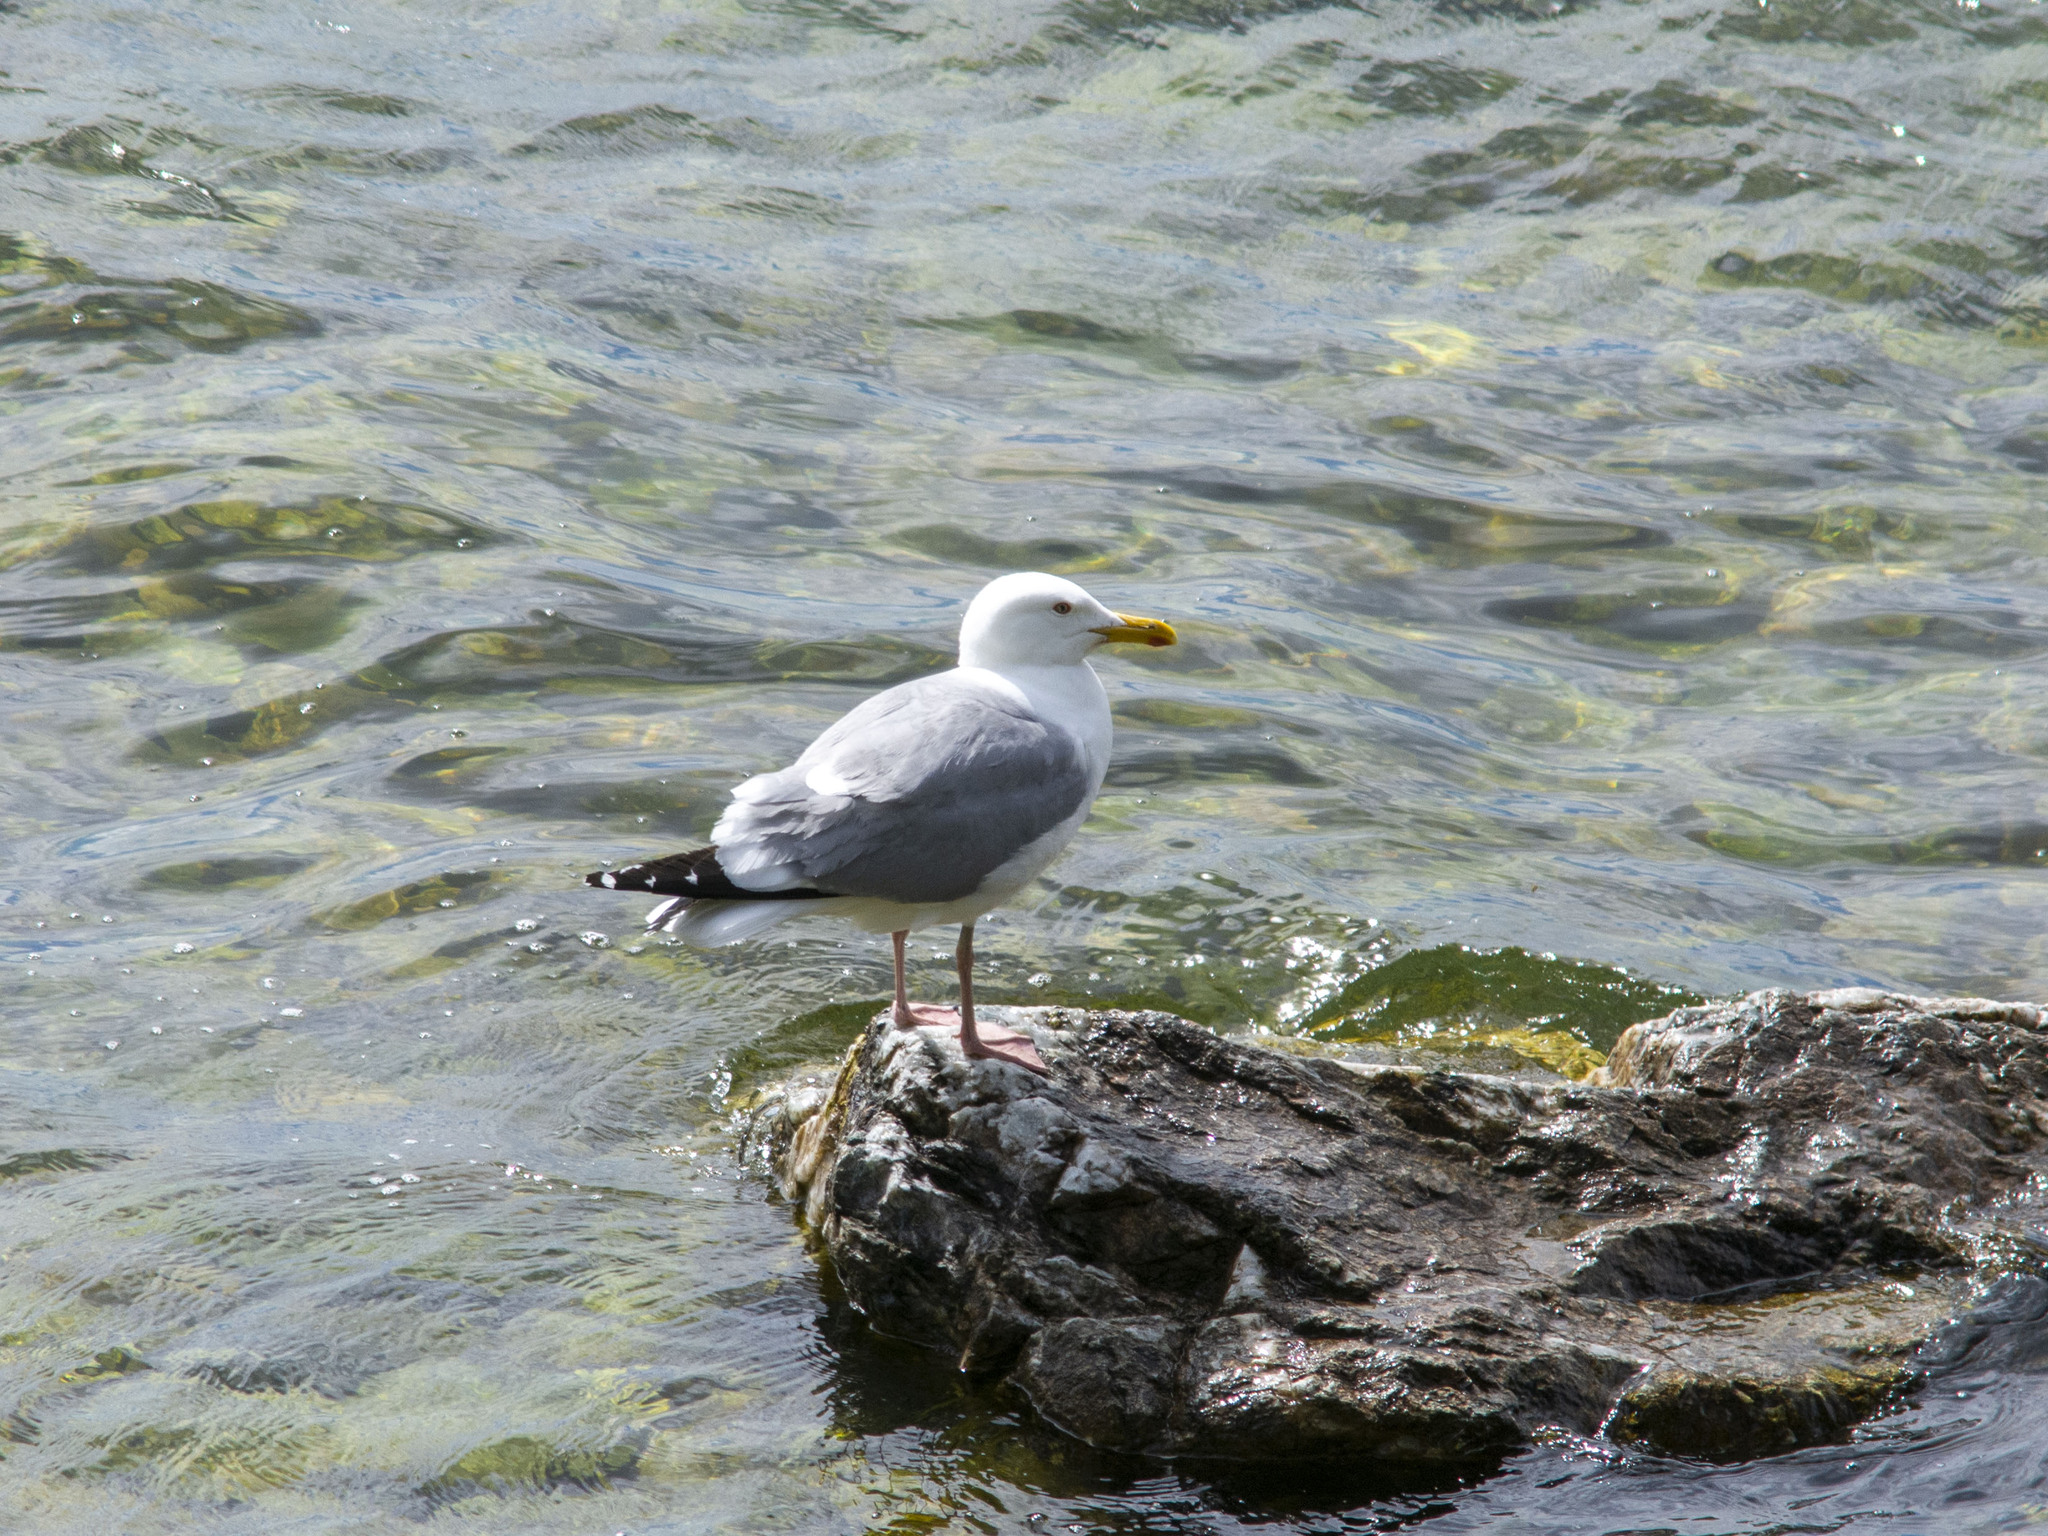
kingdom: Animalia
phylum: Chordata
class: Aves
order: Charadriiformes
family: Laridae
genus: Larus
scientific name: Larus argentatus
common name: Herring gull
